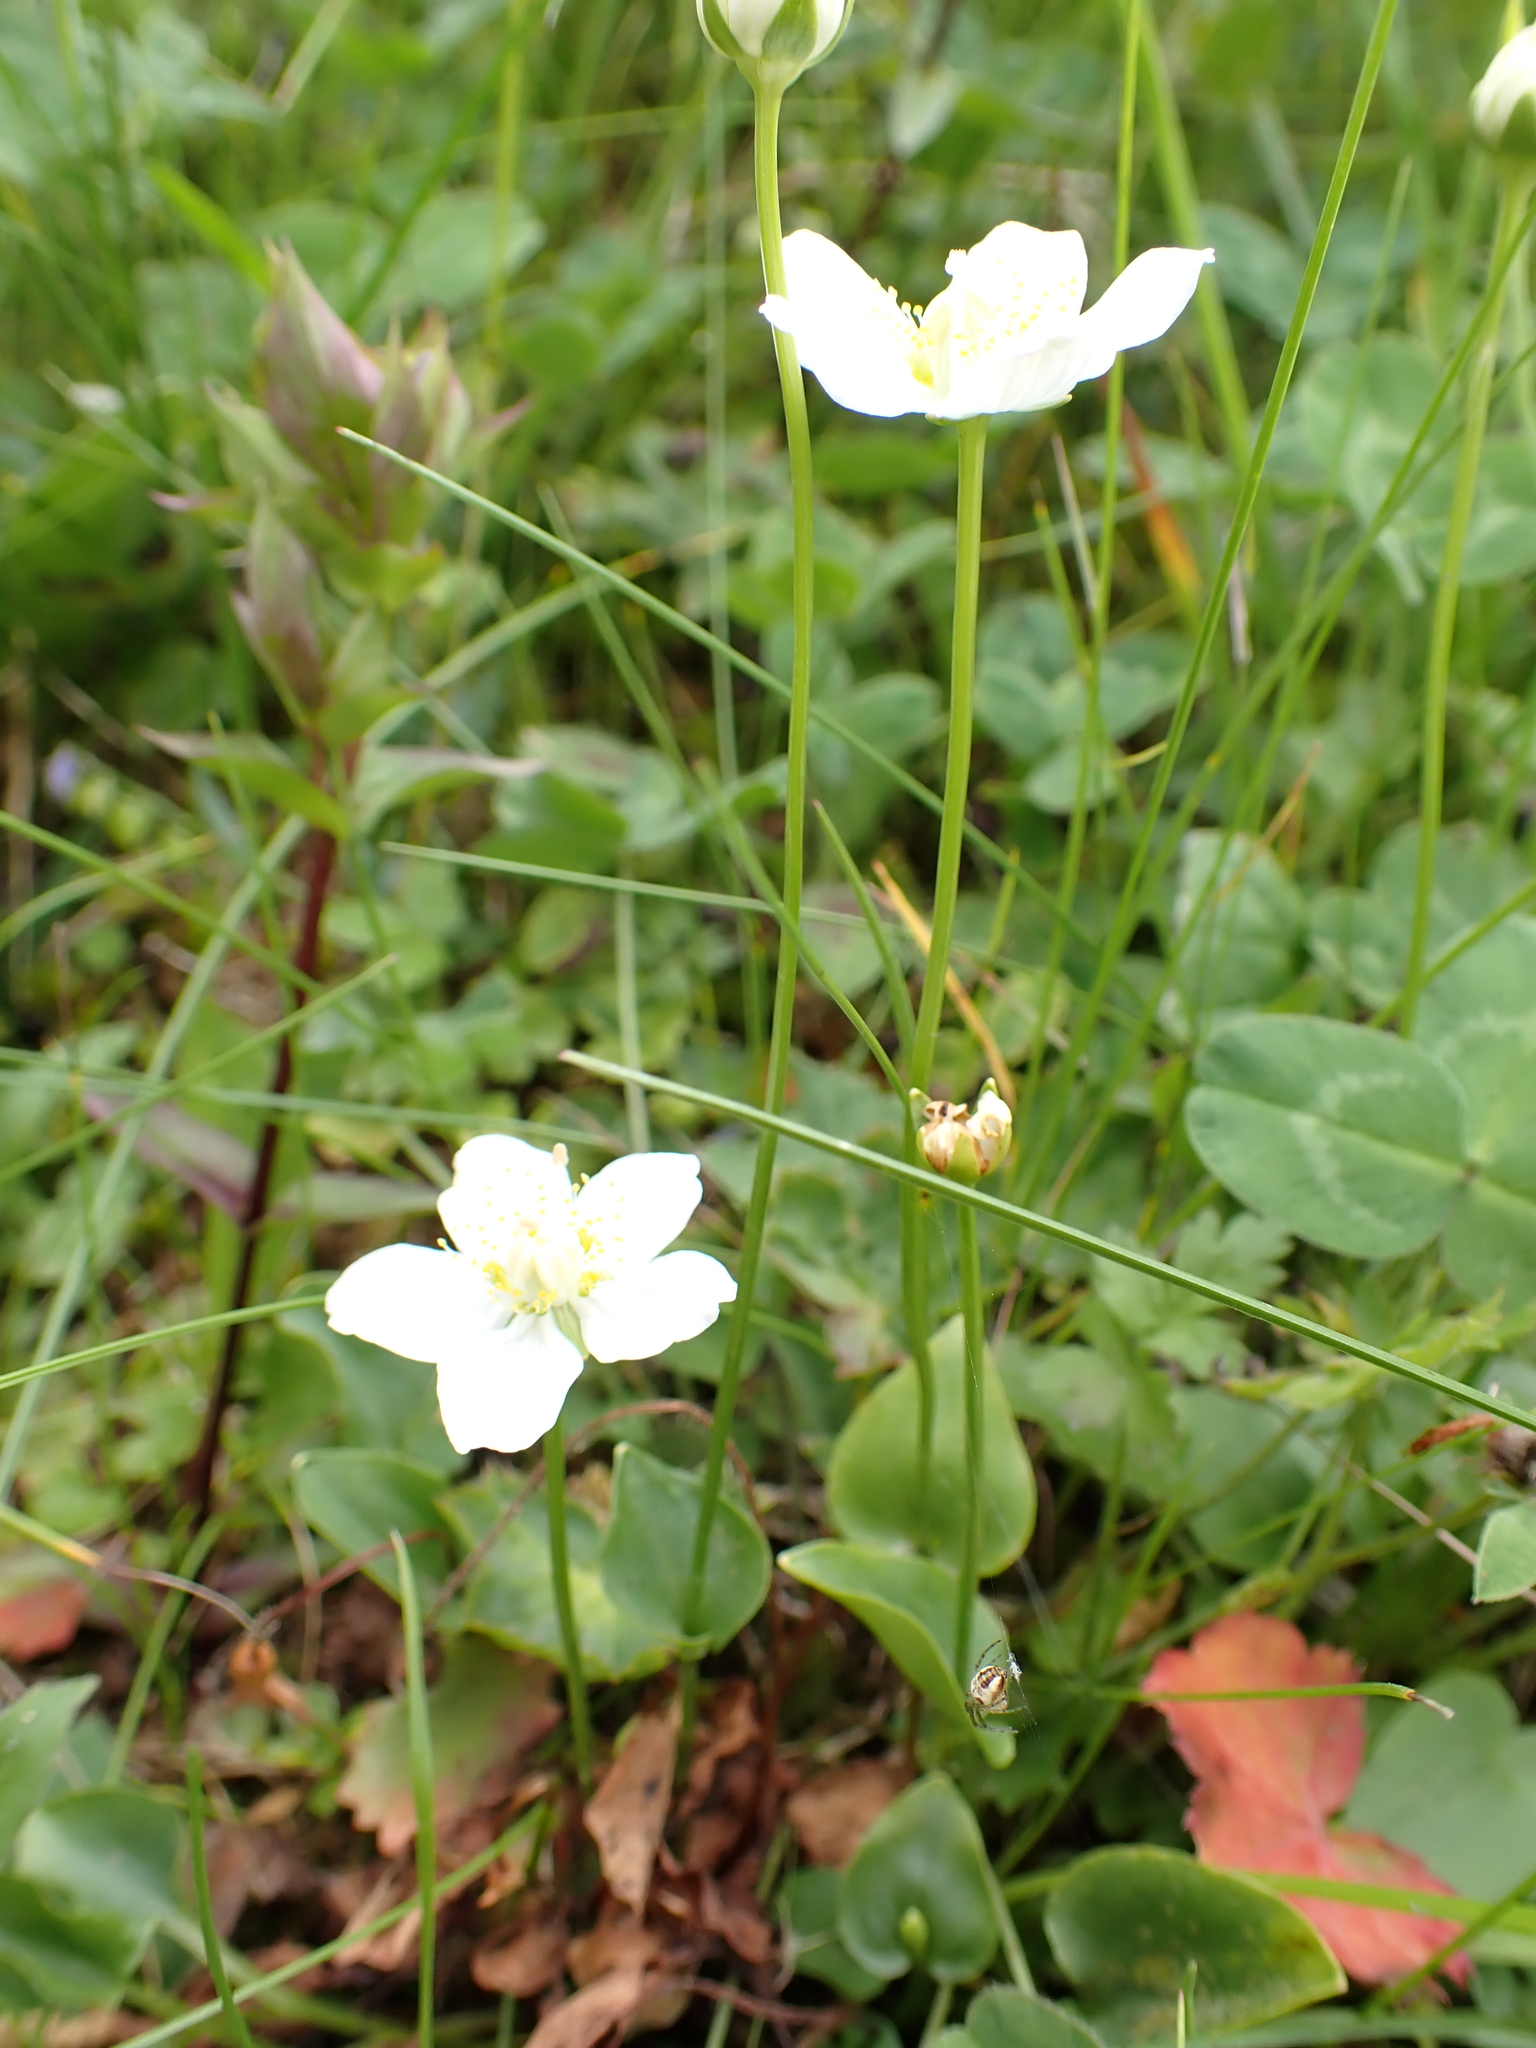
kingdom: Plantae
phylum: Tracheophyta
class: Magnoliopsida
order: Celastrales
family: Parnassiaceae
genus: Parnassia
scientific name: Parnassia palustris
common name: Grass-of-parnassus
